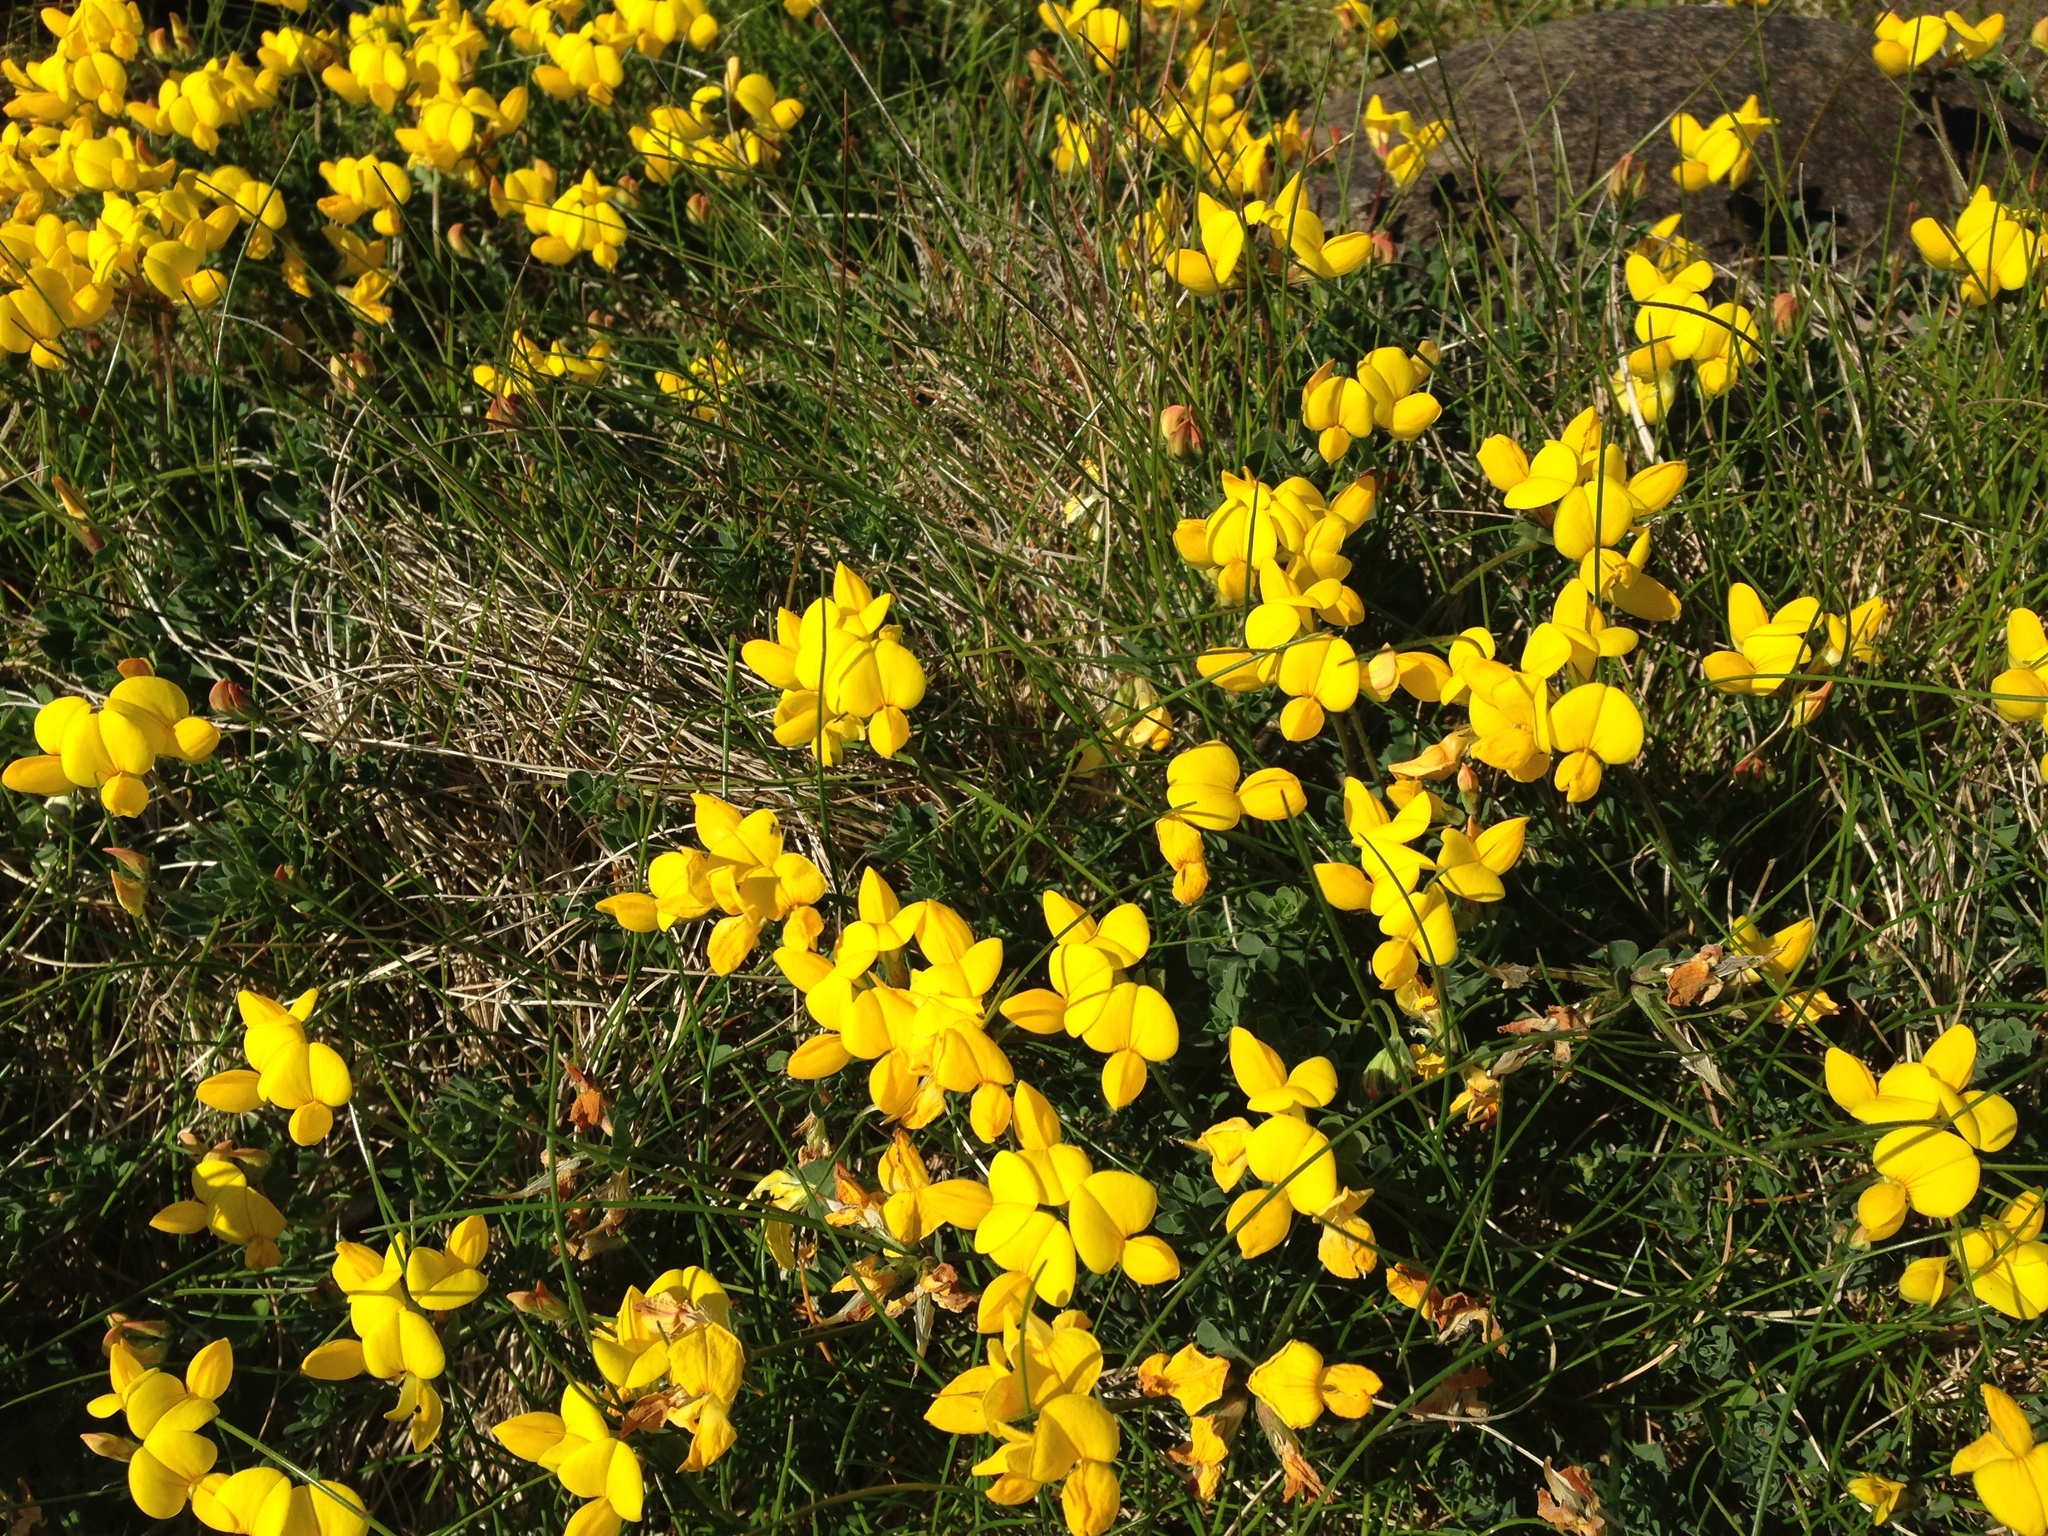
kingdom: Plantae
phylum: Tracheophyta
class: Magnoliopsida
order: Fabales
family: Fabaceae
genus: Lotus
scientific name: Lotus corniculatus
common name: Common bird's-foot-trefoil
